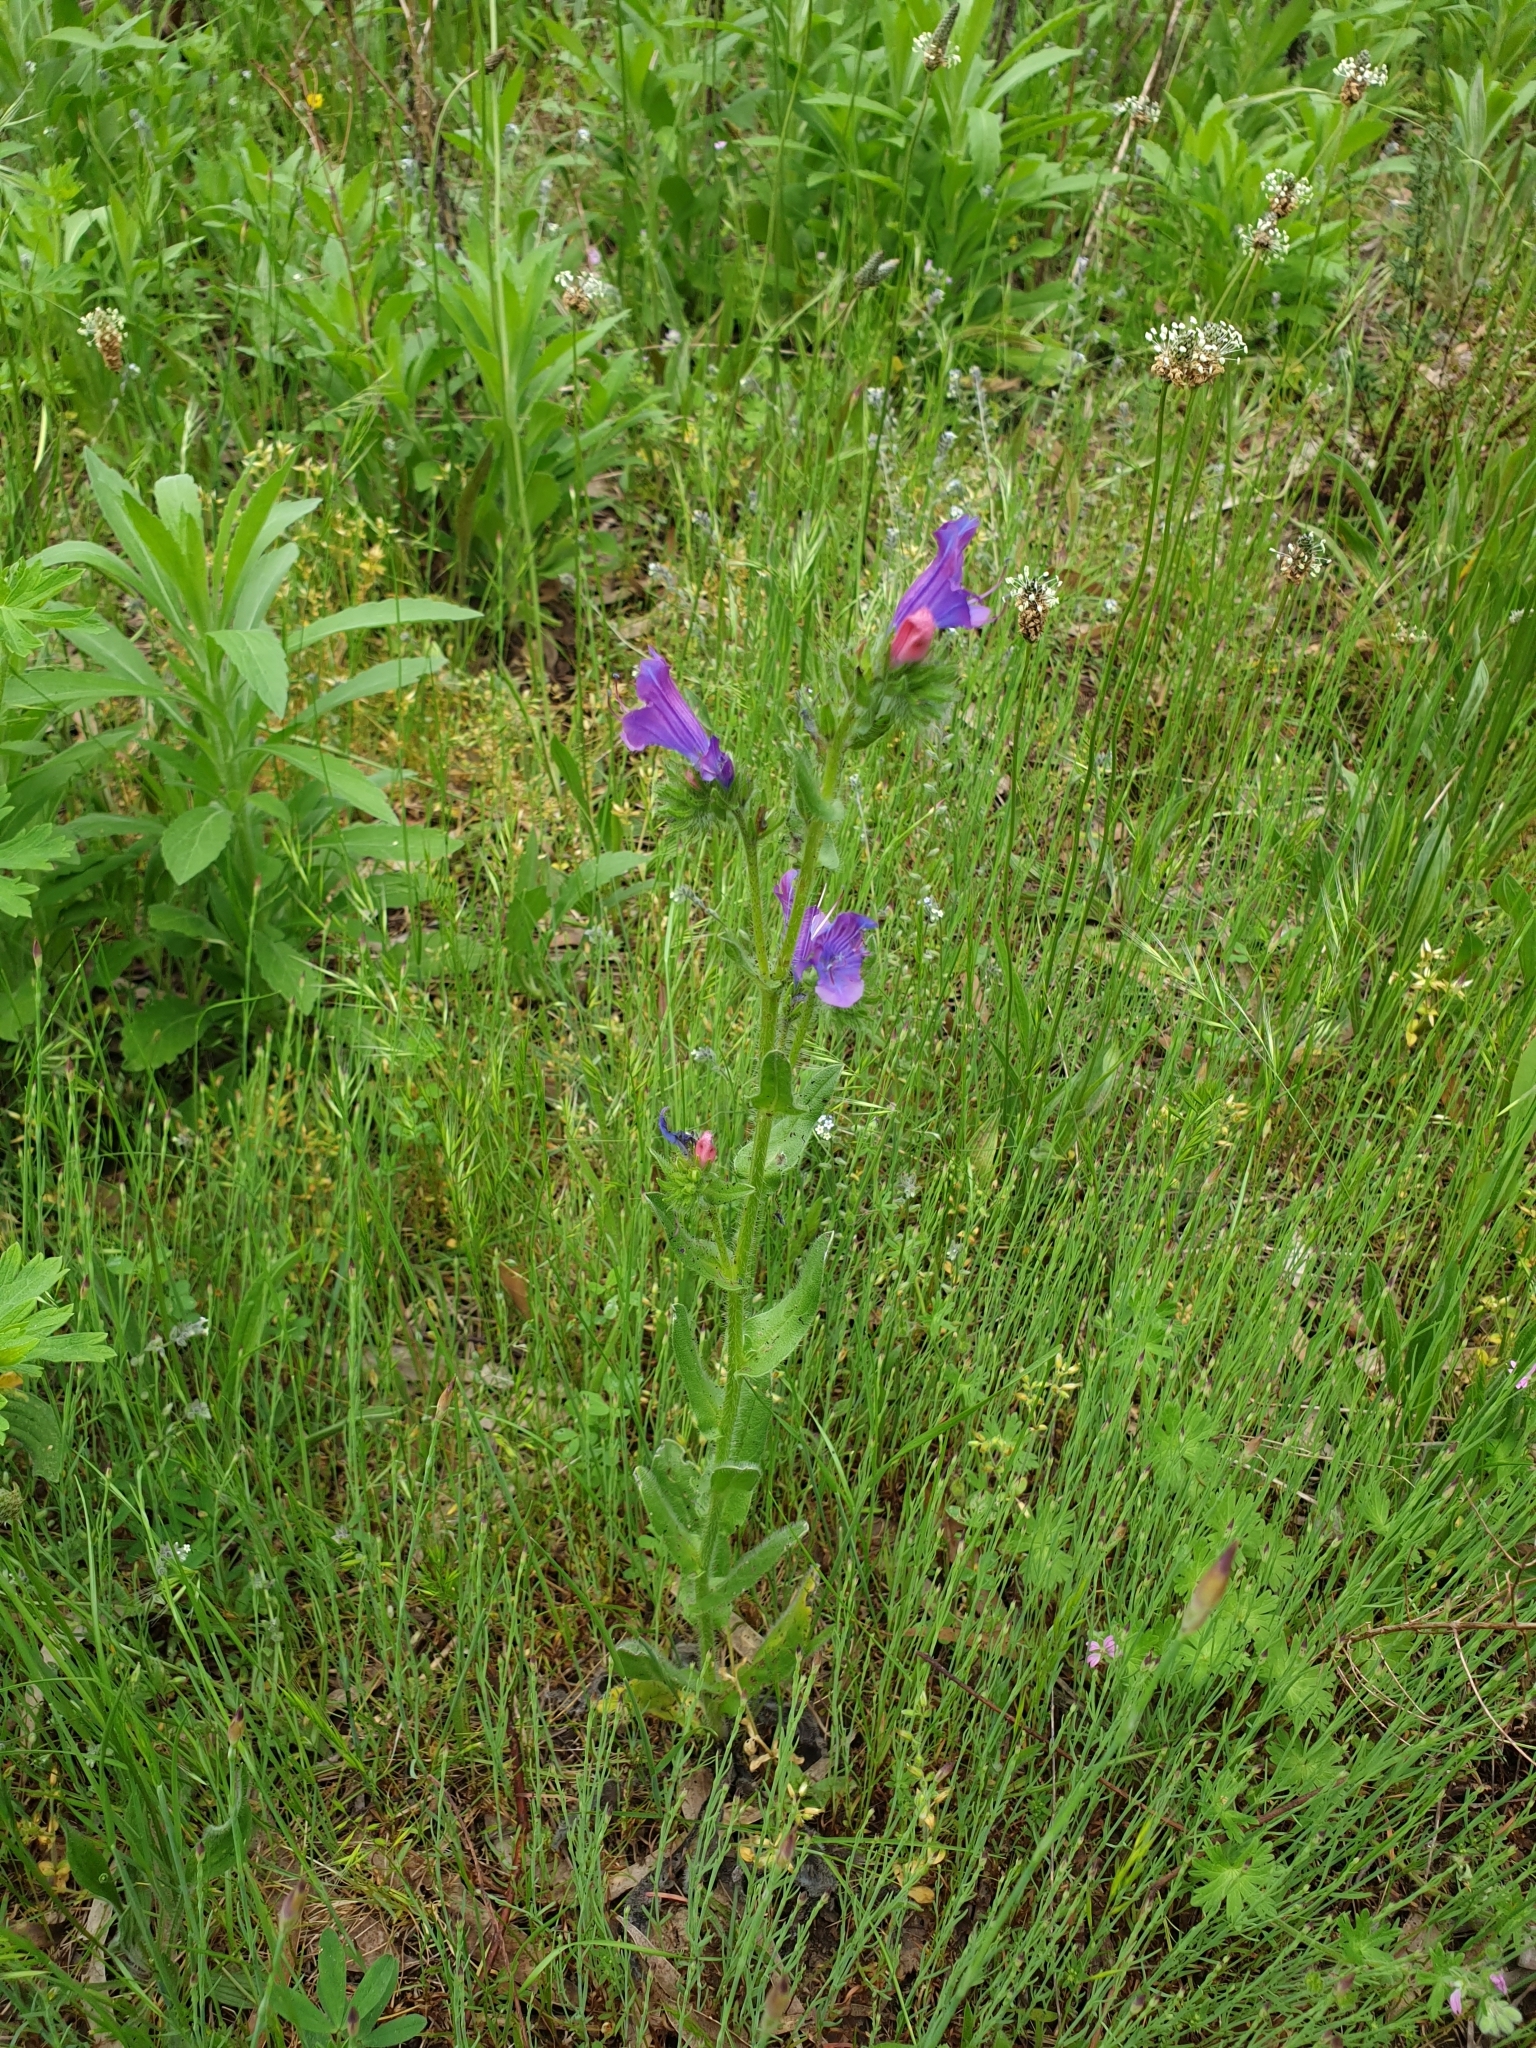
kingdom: Plantae
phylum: Tracheophyta
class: Magnoliopsida
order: Boraginales
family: Boraginaceae
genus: Echium
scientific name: Echium plantagineum
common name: Purple viper's-bugloss
